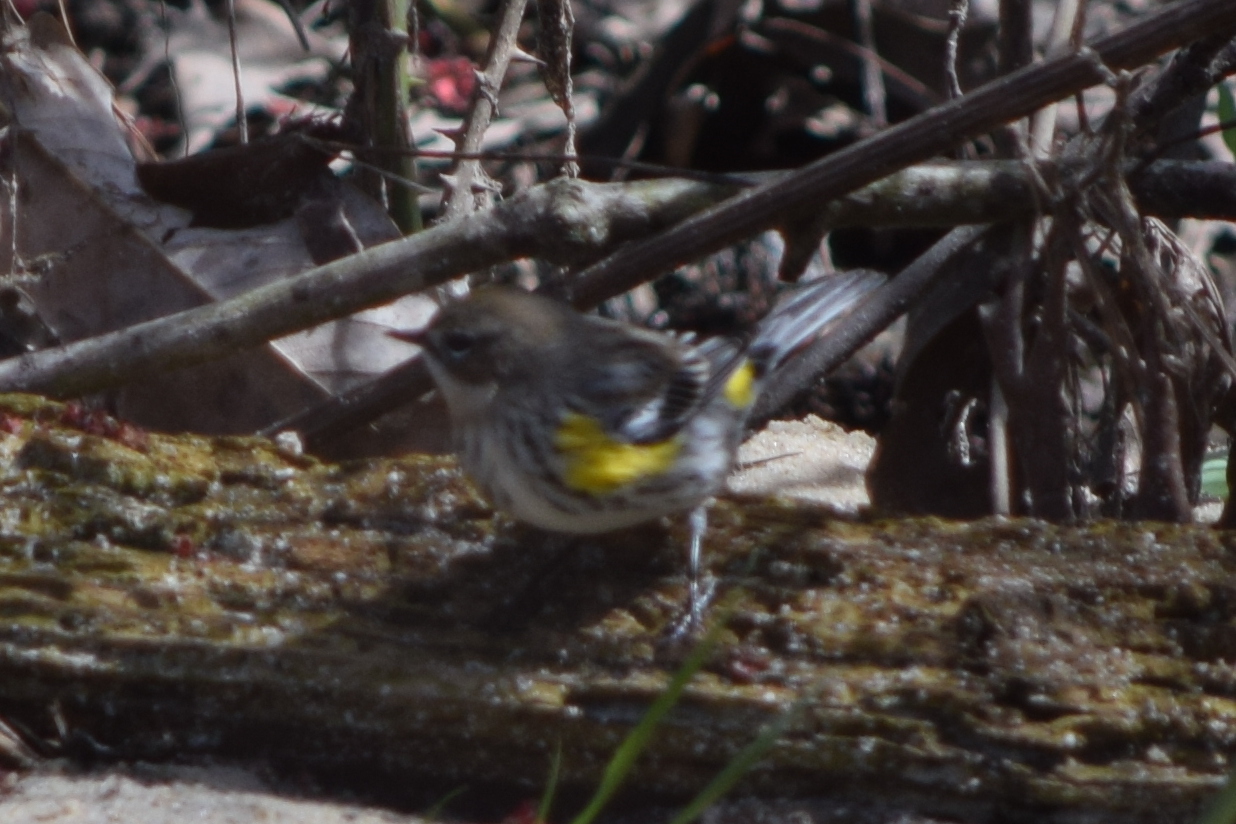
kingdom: Animalia
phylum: Chordata
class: Aves
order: Passeriformes
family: Parulidae
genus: Setophaga
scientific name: Setophaga coronata
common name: Myrtle warbler
